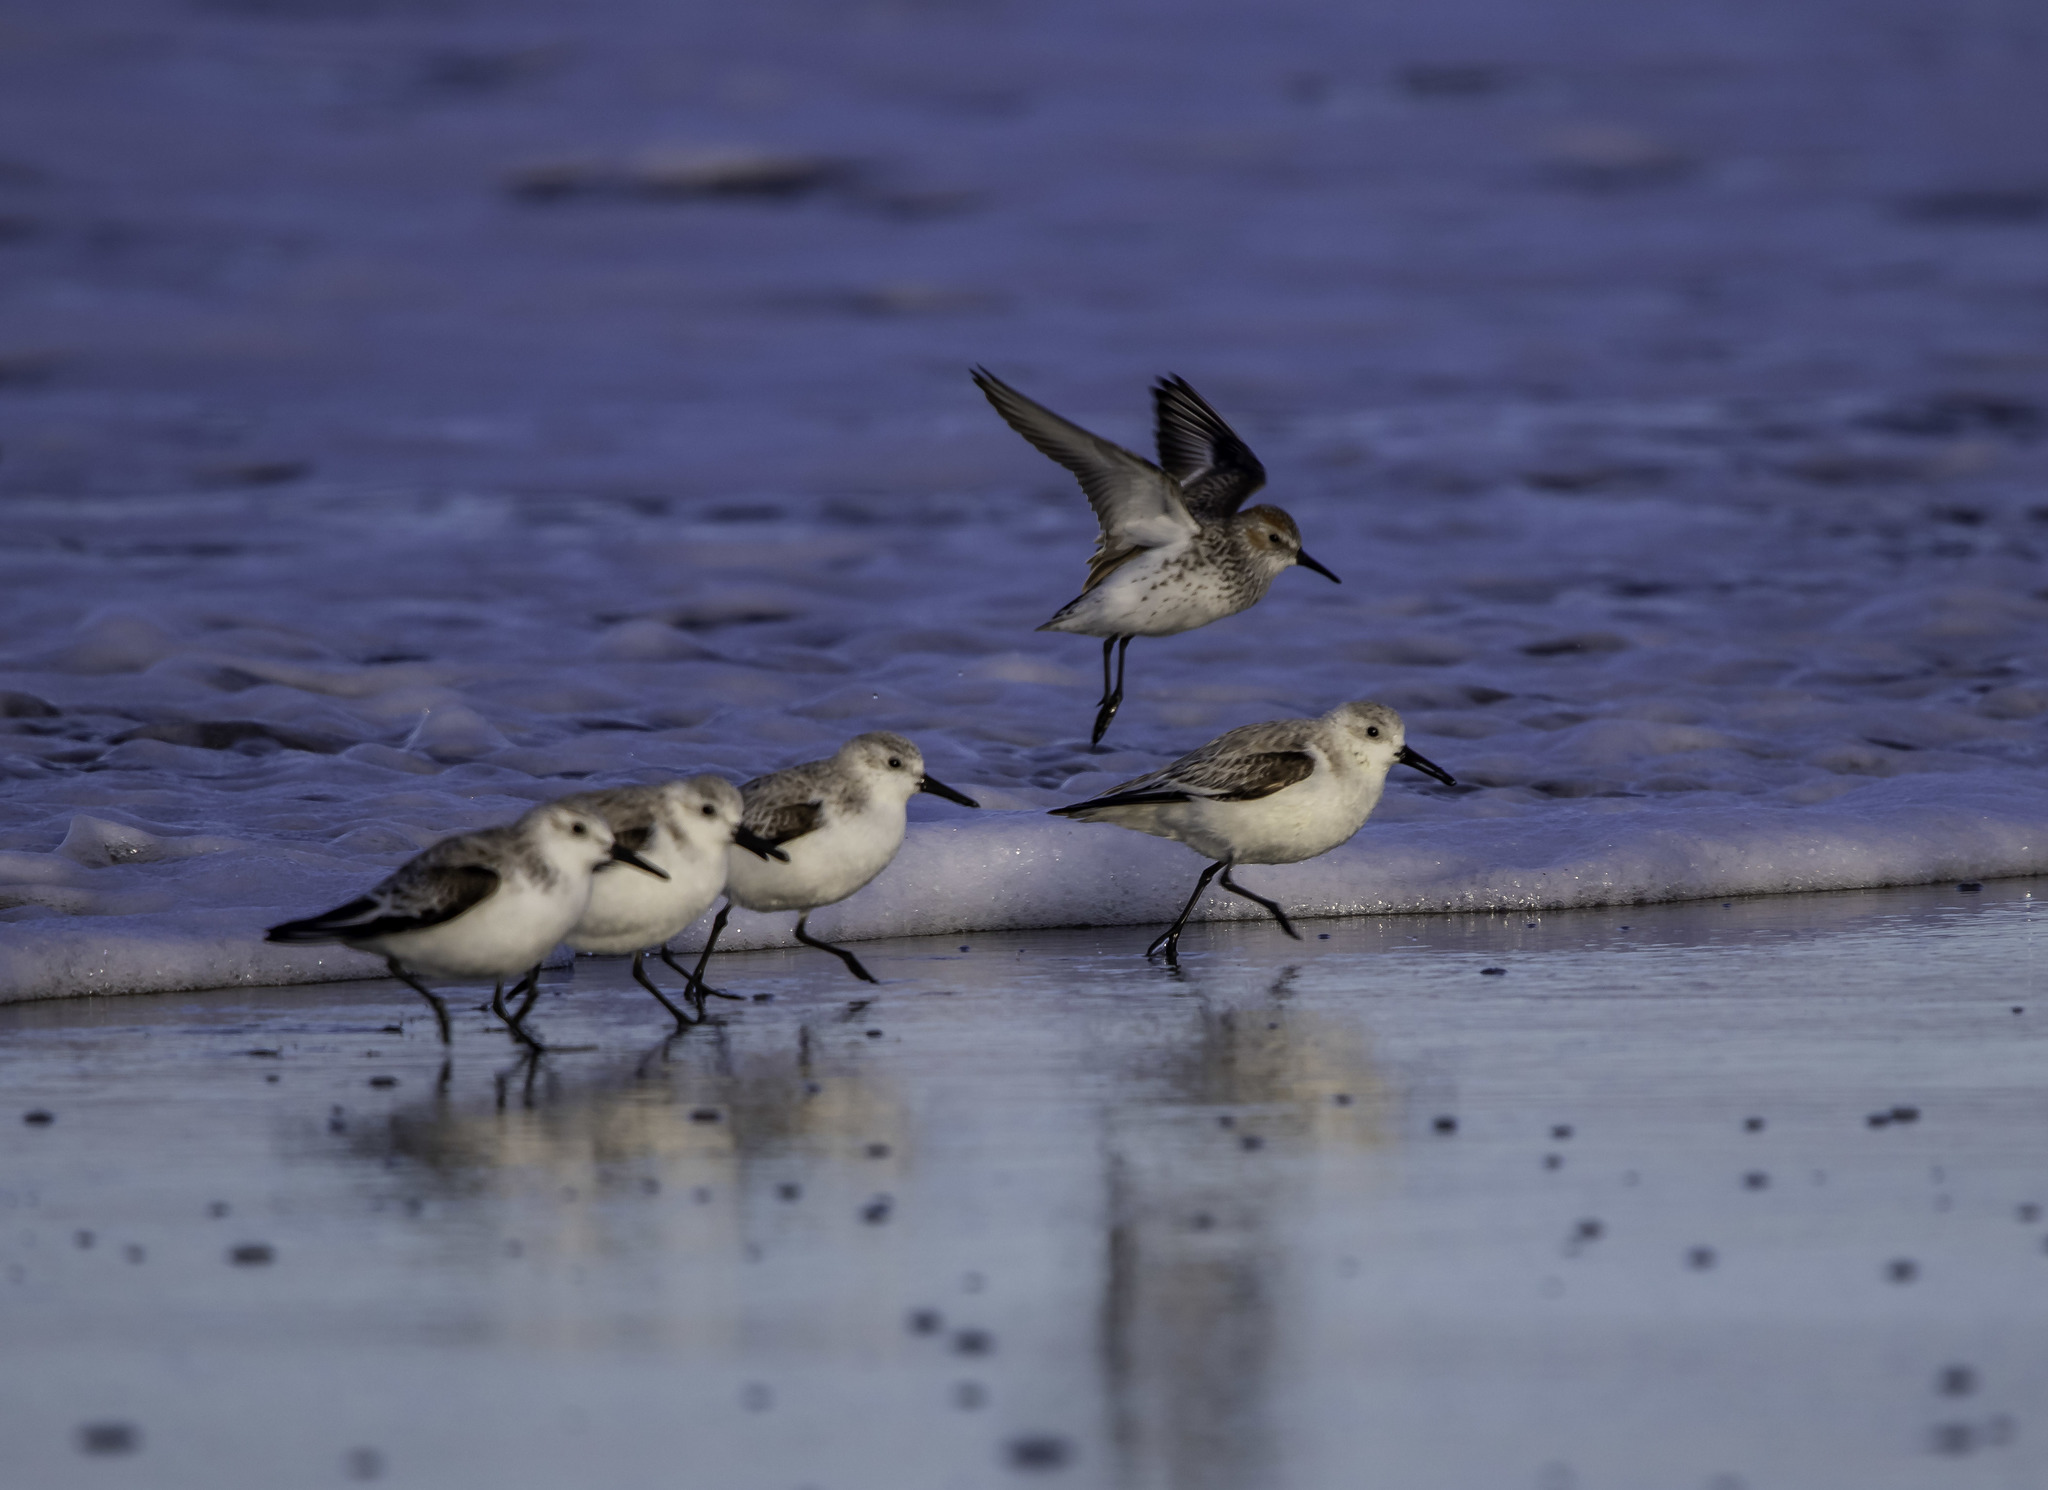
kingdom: Animalia
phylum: Chordata
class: Aves
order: Charadriiformes
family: Scolopacidae
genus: Calidris
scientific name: Calidris alba
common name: Sanderling
